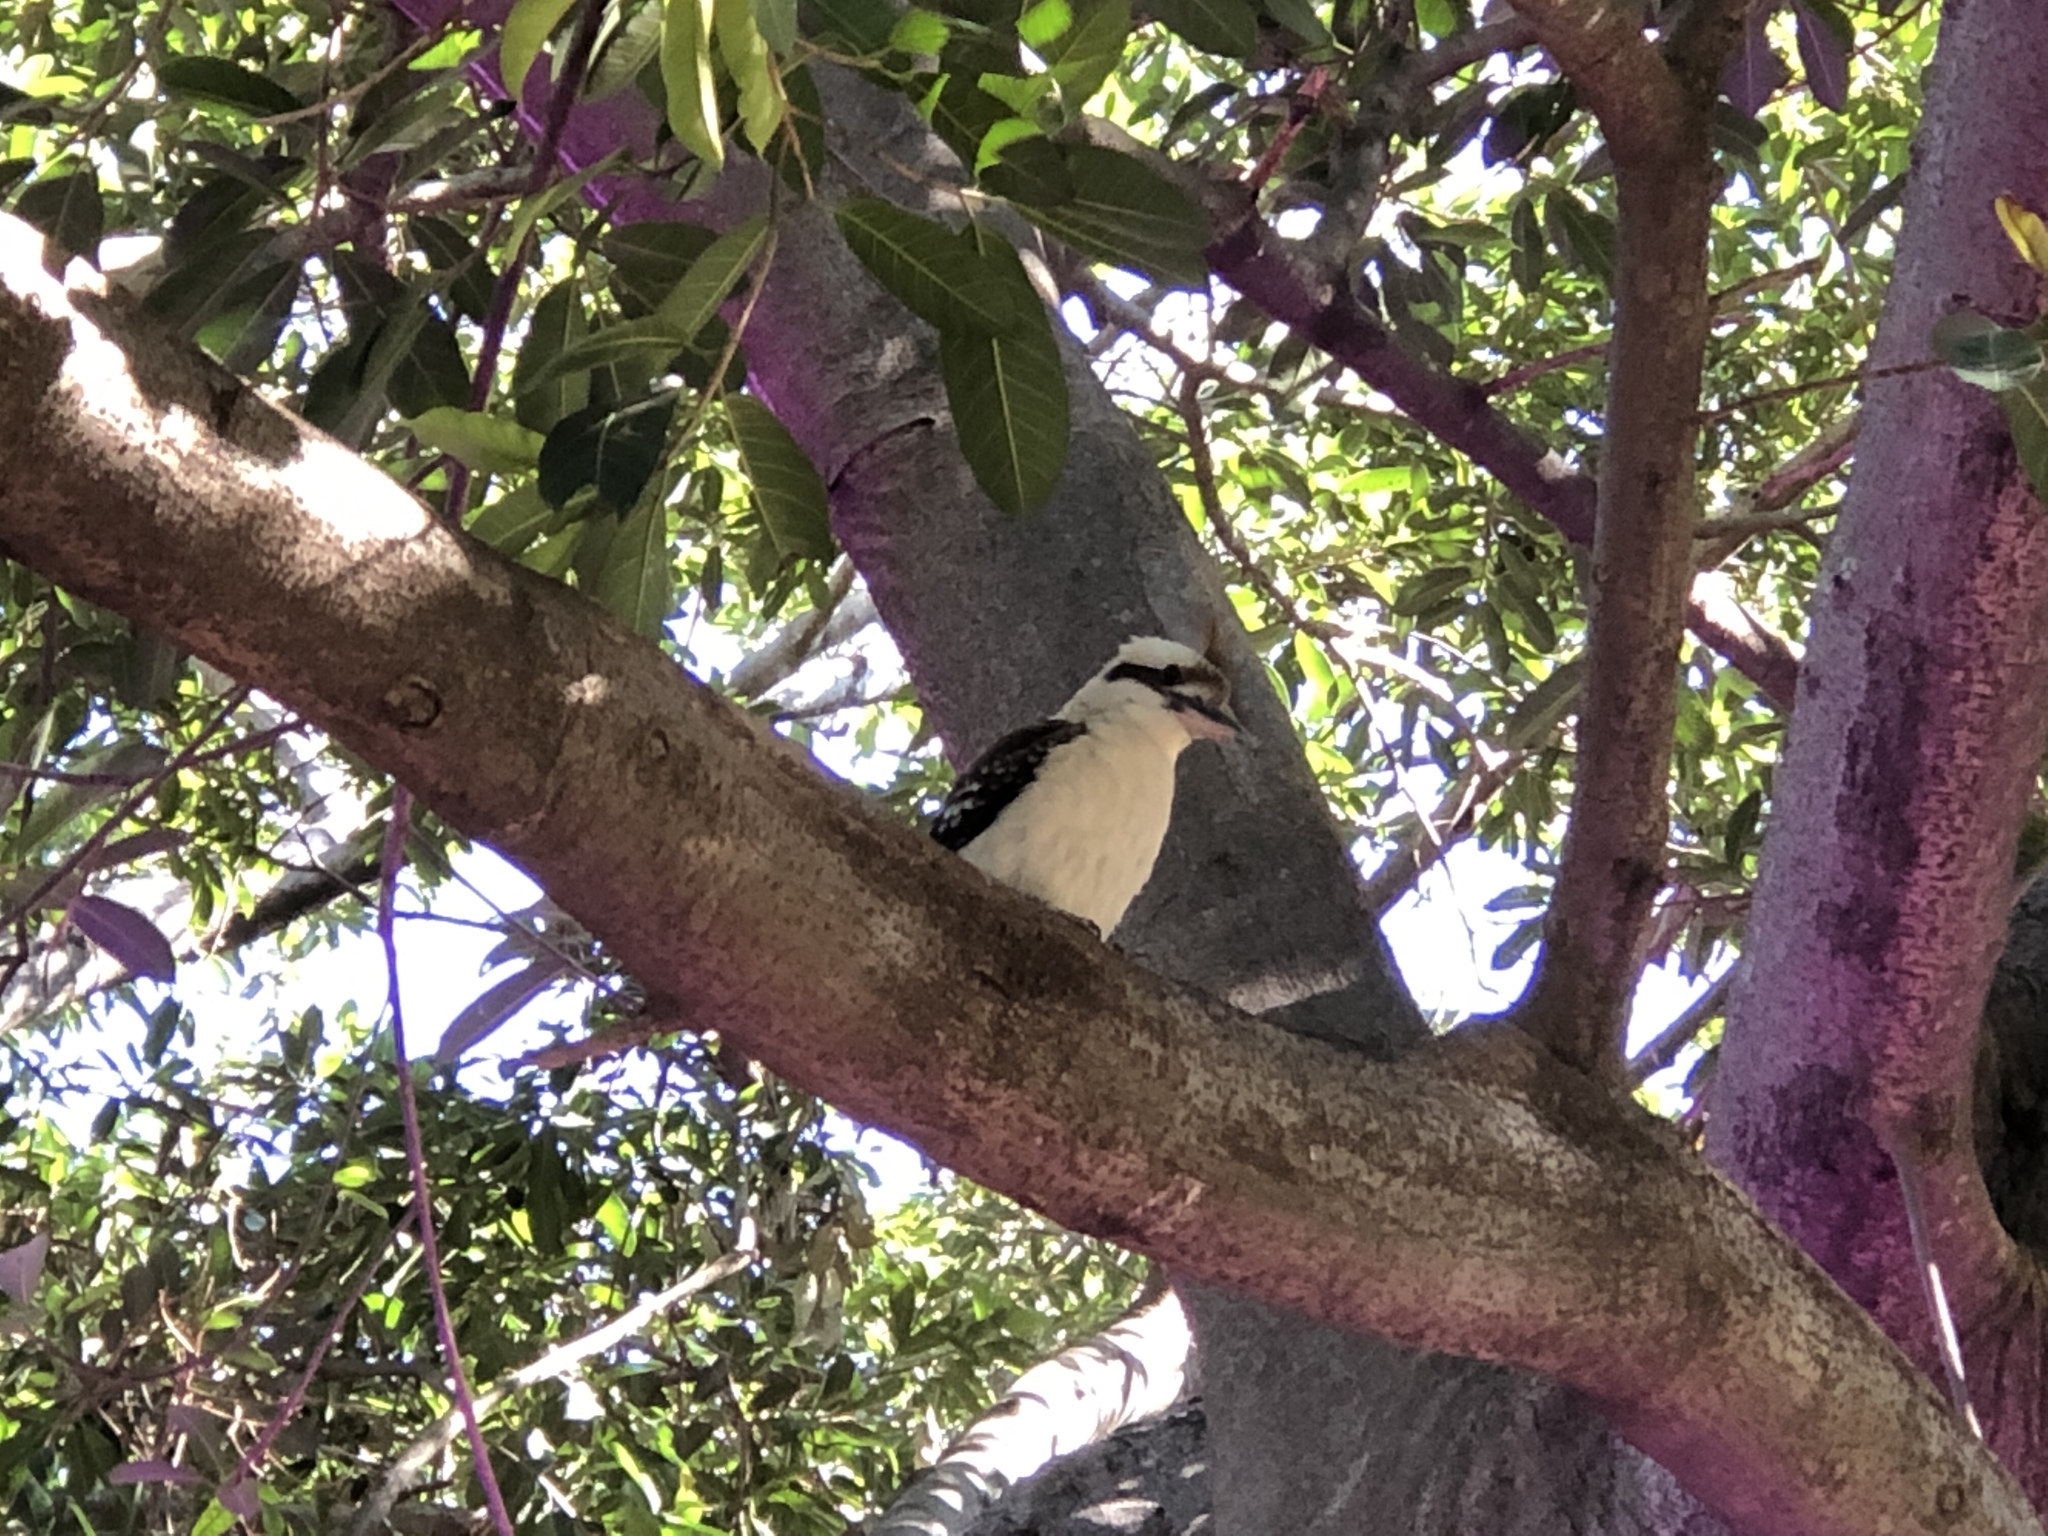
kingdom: Animalia
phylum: Chordata
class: Aves
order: Coraciiformes
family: Alcedinidae
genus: Dacelo
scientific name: Dacelo novaeguineae
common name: Laughing kookaburra
